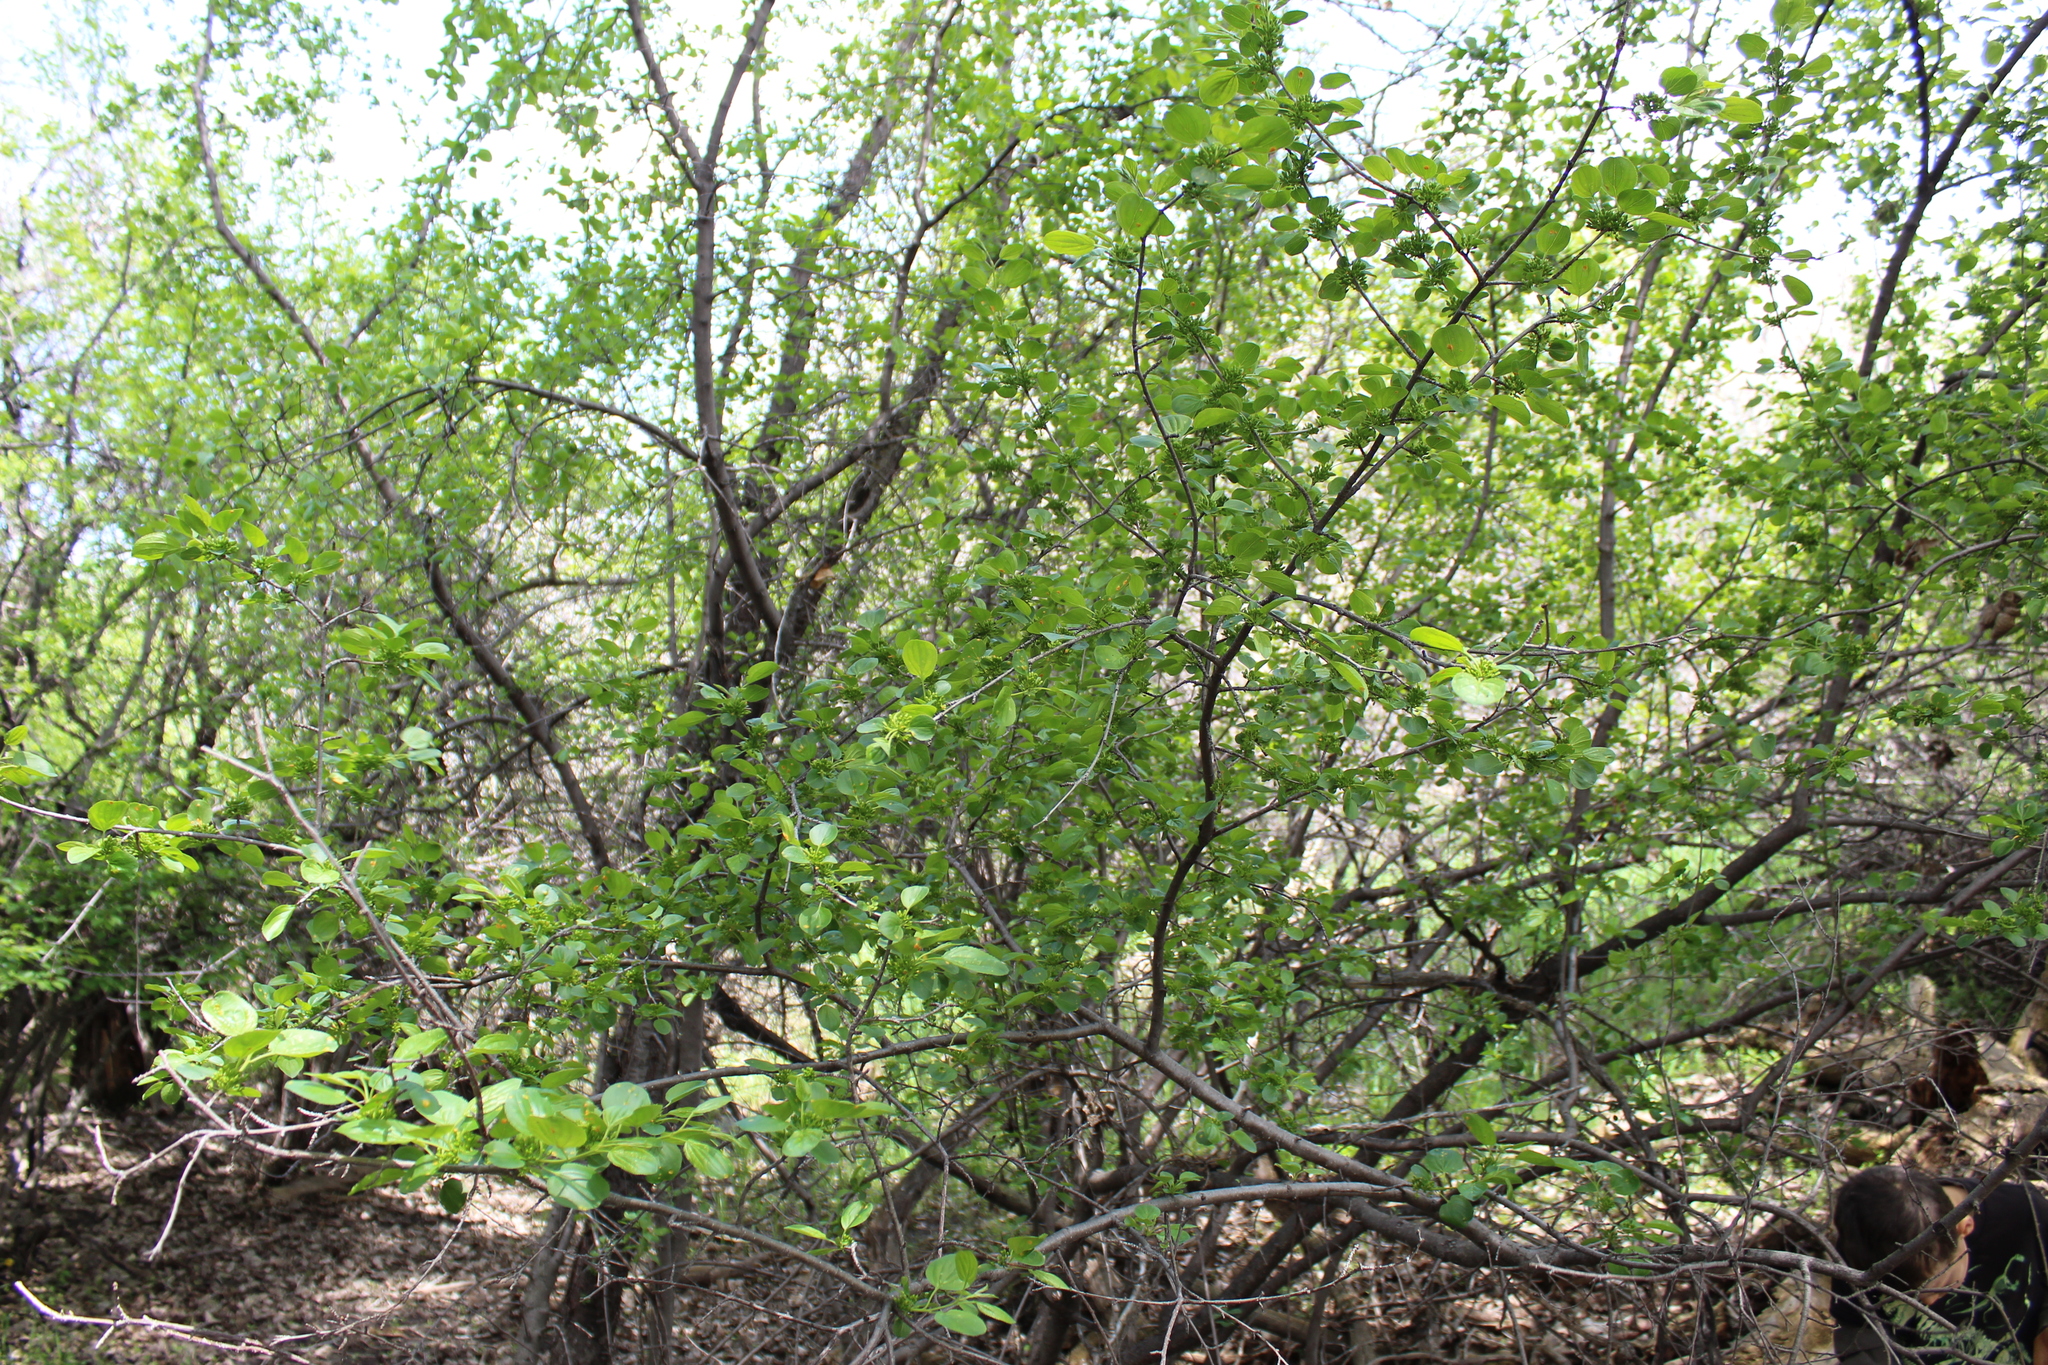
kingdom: Plantae
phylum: Tracheophyta
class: Magnoliopsida
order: Rosales
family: Rhamnaceae
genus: Rhamnus
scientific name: Rhamnus cathartica
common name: Common buckthorn
